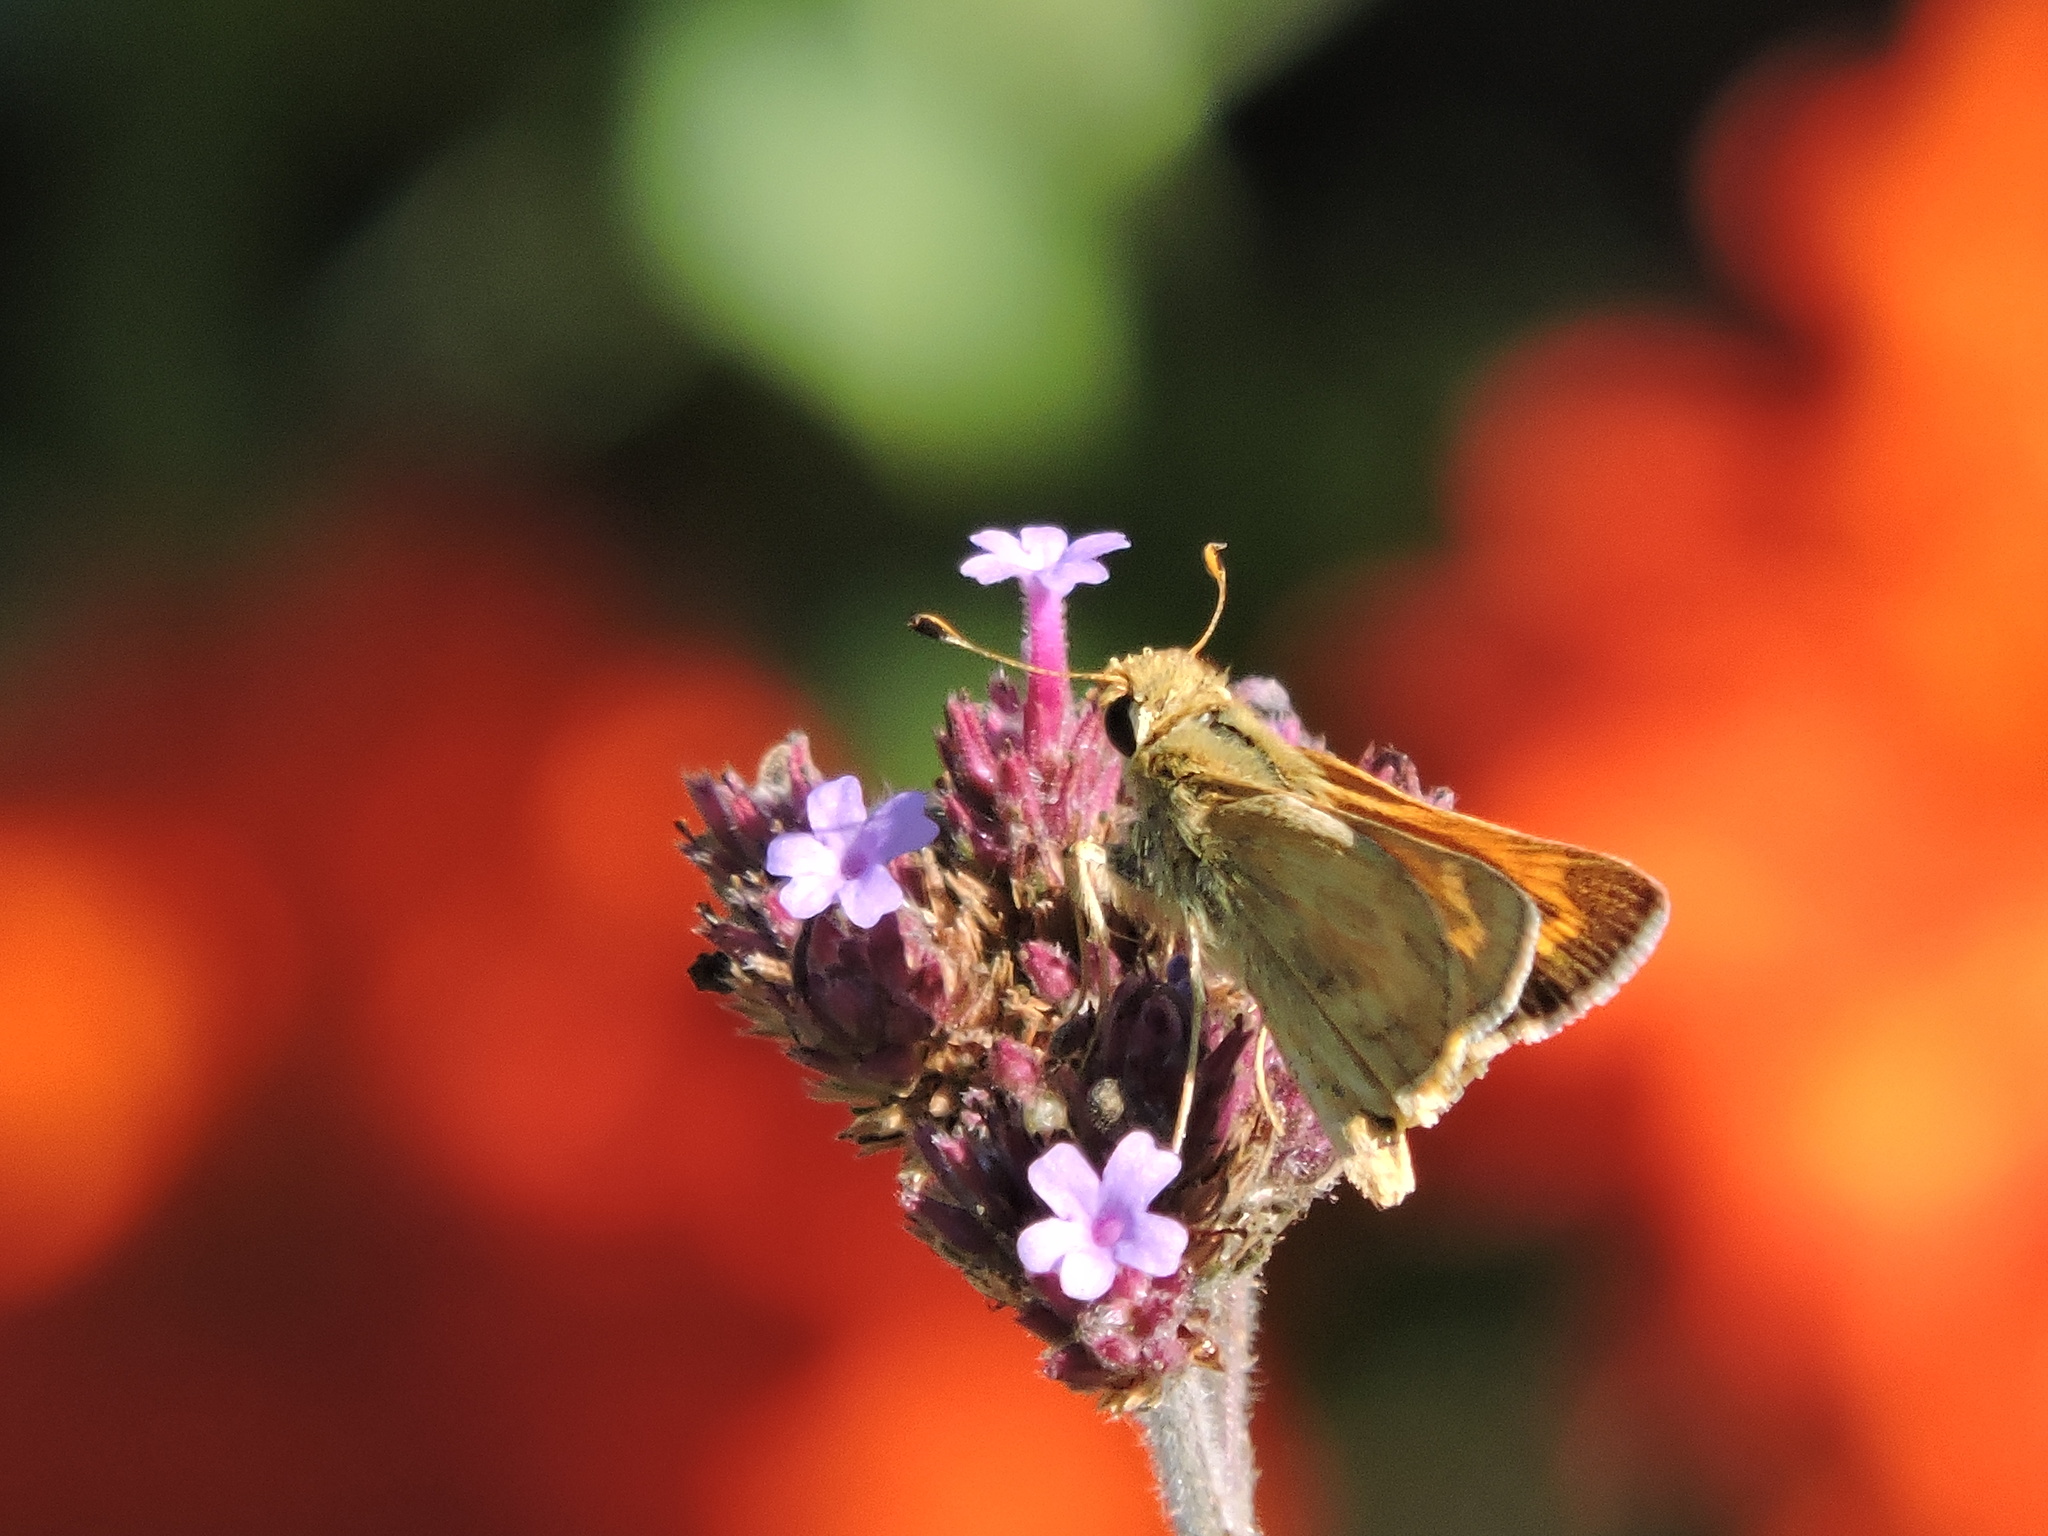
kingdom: Animalia
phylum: Arthropoda
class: Insecta
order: Lepidoptera
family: Hesperiidae
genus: Ochlodes
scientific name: Ochlodes sylvanoides
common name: Woodland skipper
